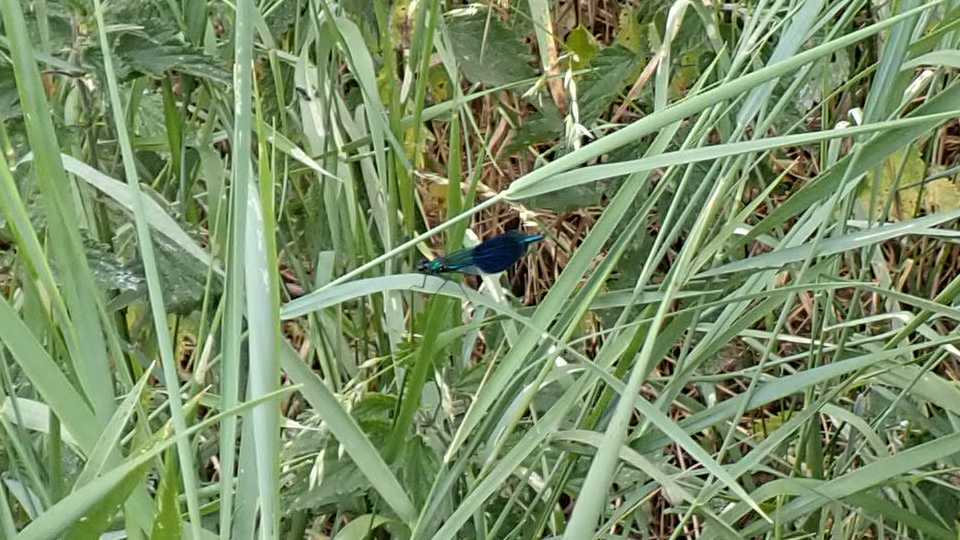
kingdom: Animalia
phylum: Arthropoda
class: Insecta
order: Odonata
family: Calopterygidae
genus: Calopteryx
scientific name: Calopteryx splendens
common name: Banded demoiselle
